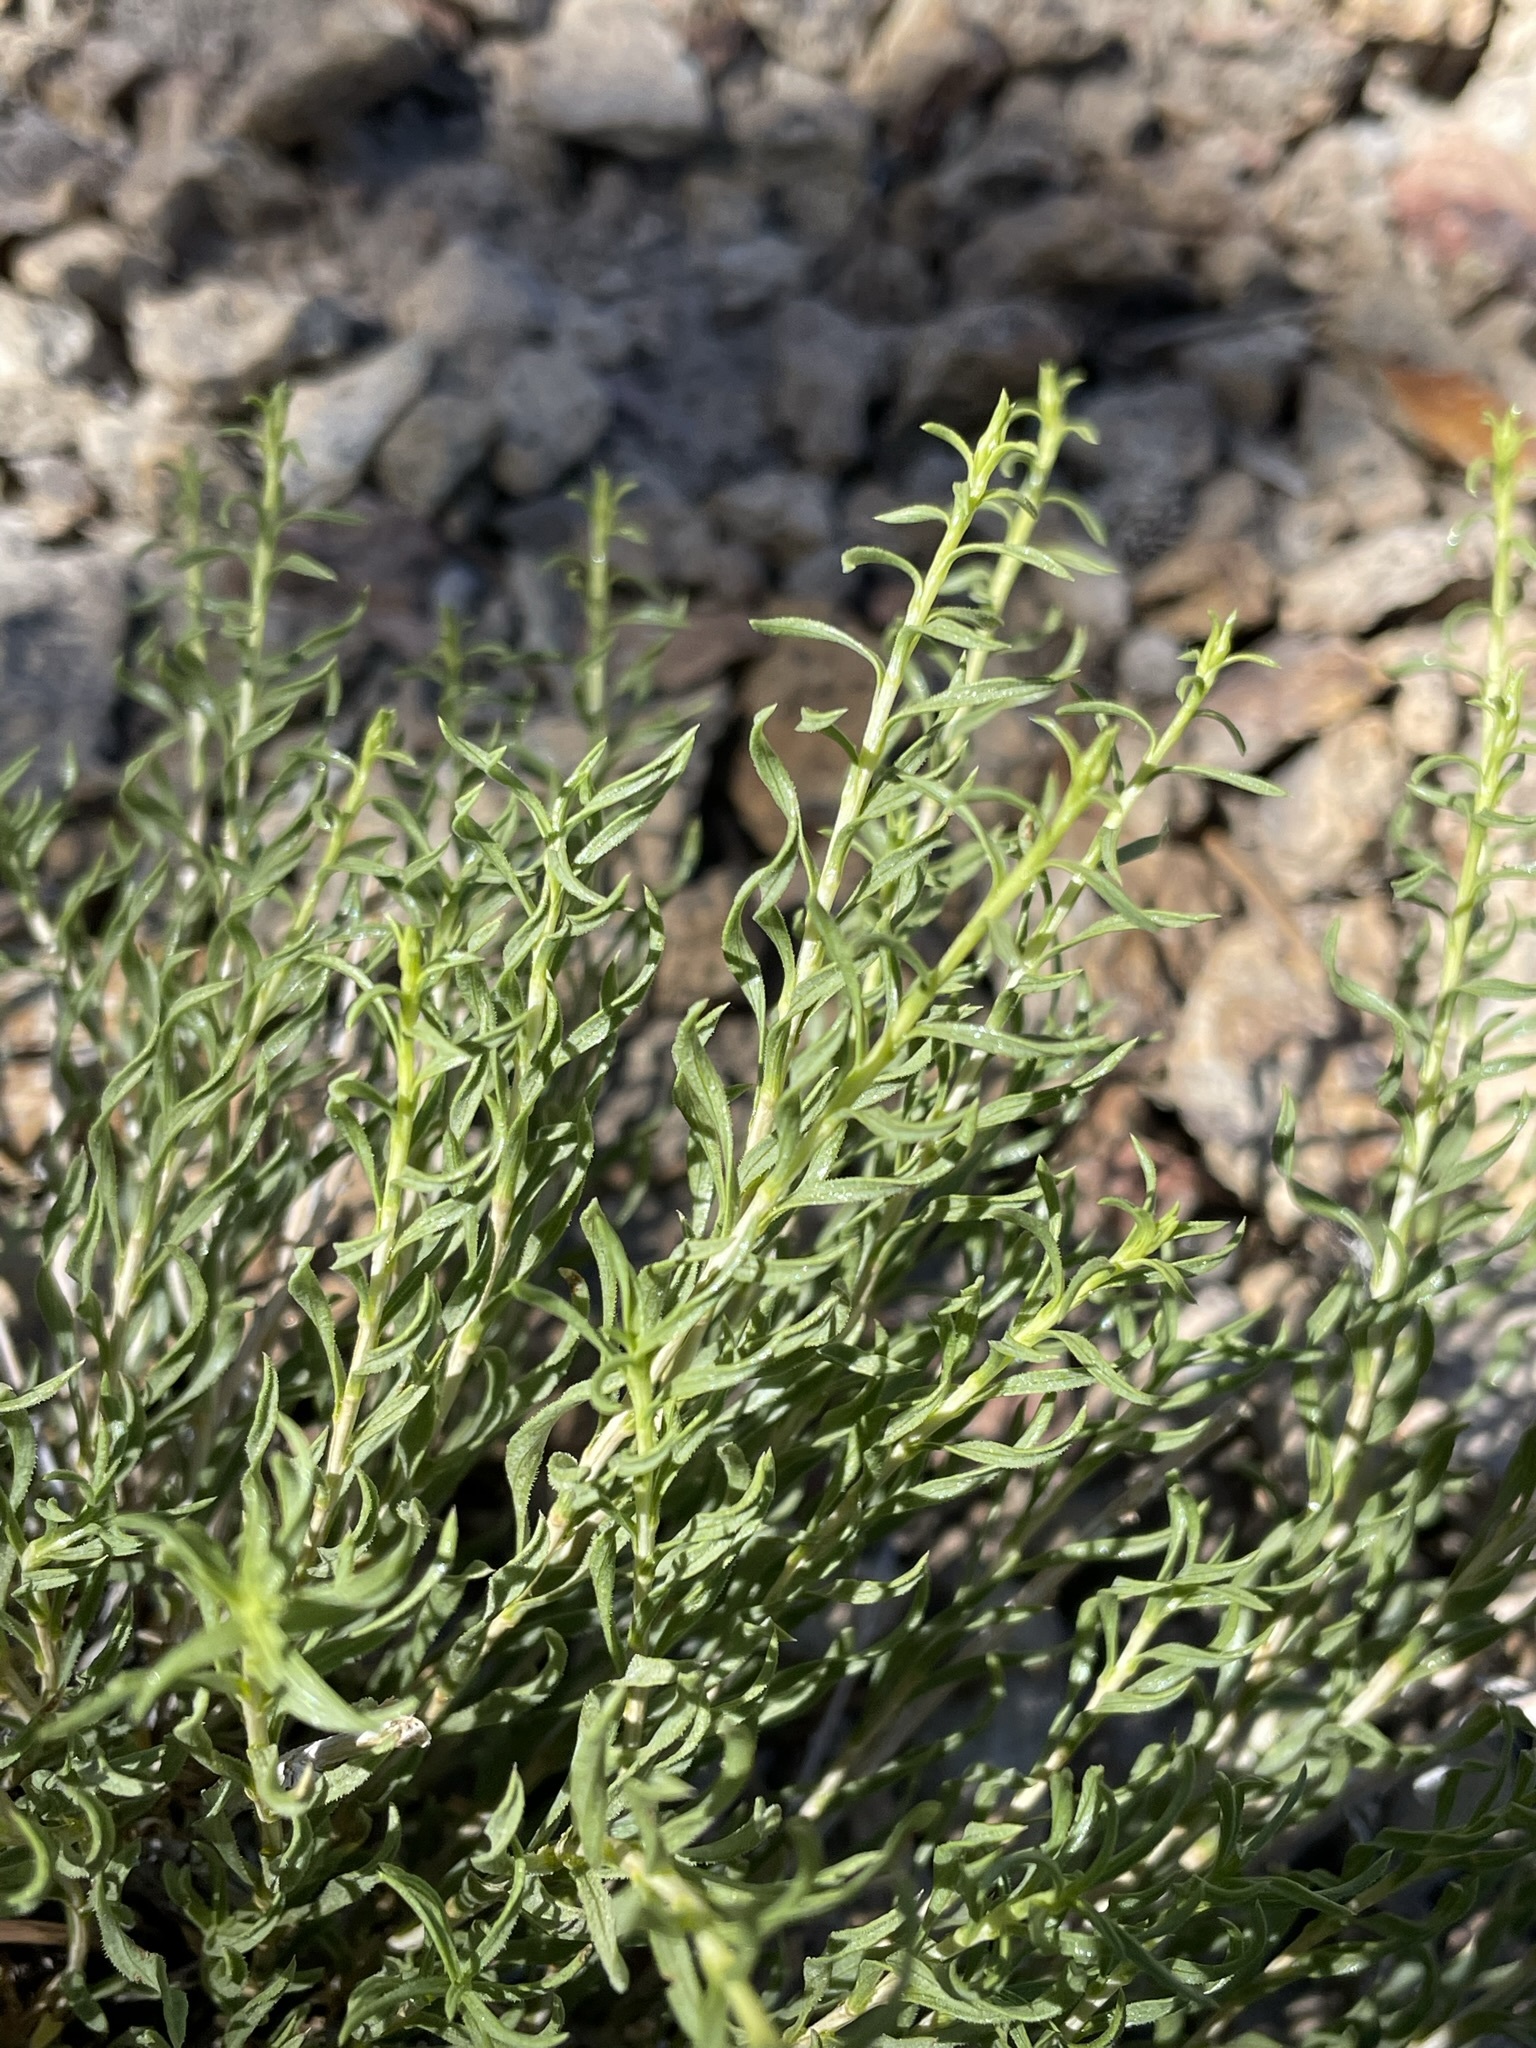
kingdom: Plantae
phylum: Tracheophyta
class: Magnoliopsida
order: Asterales
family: Asteraceae
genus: Chrysothamnus
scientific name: Chrysothamnus viscidiflorus
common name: Yellow rabbitbrush
